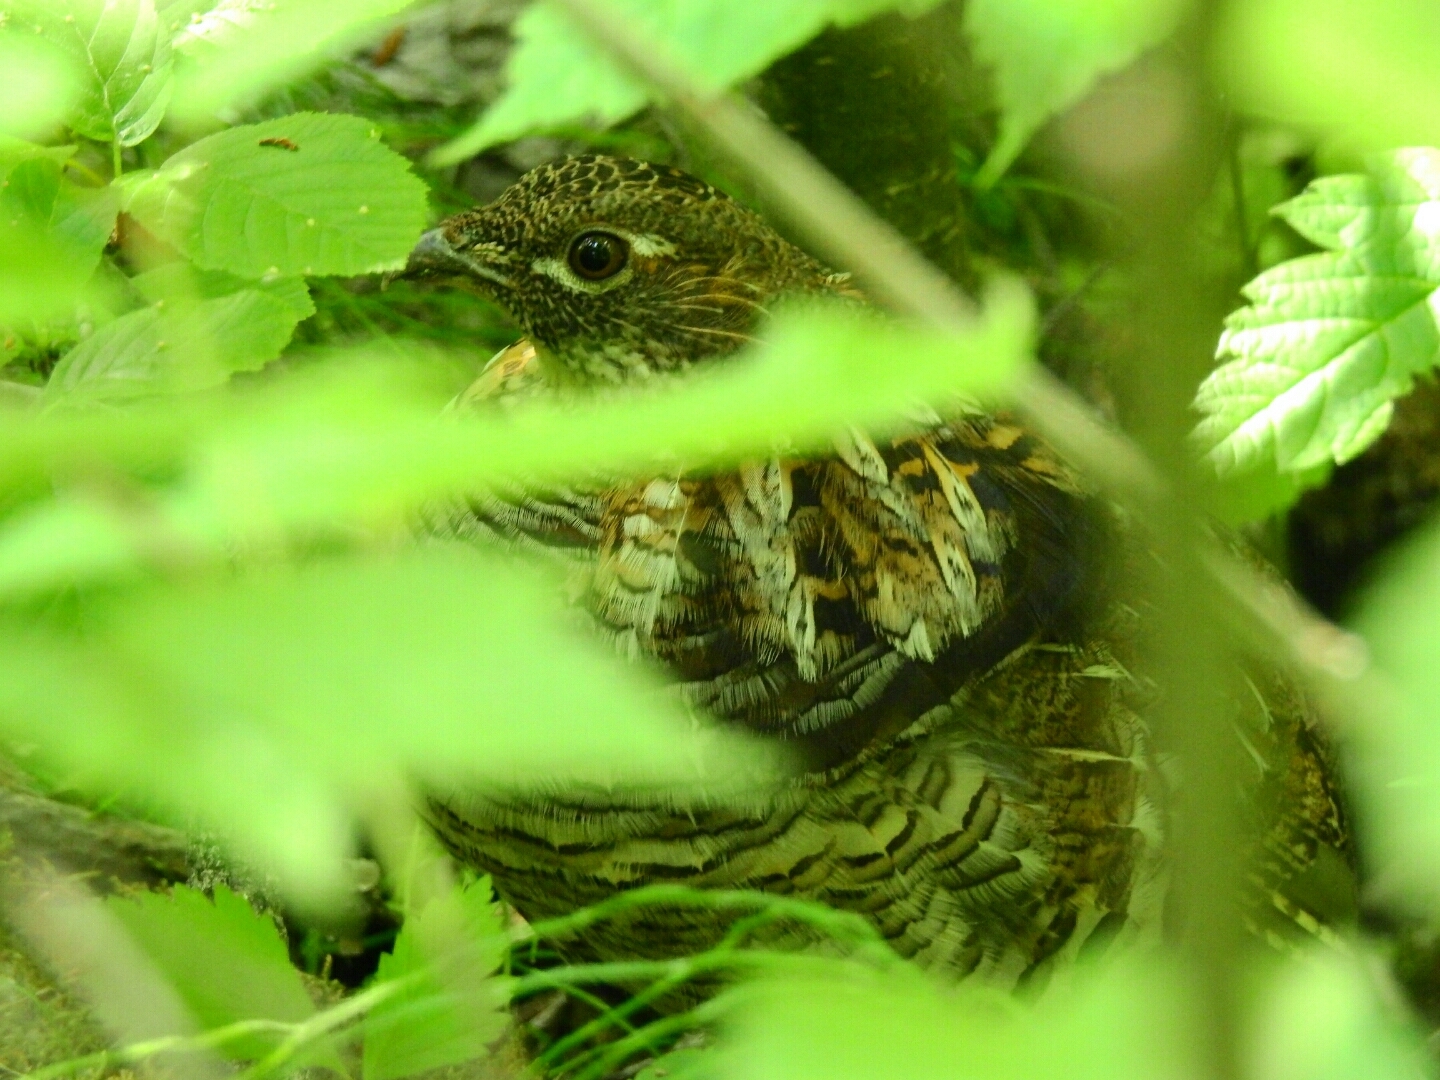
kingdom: Animalia
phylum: Chordata
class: Aves
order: Galliformes
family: Phasianidae
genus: Bonasa
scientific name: Bonasa umbellus
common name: Ruffed grouse
